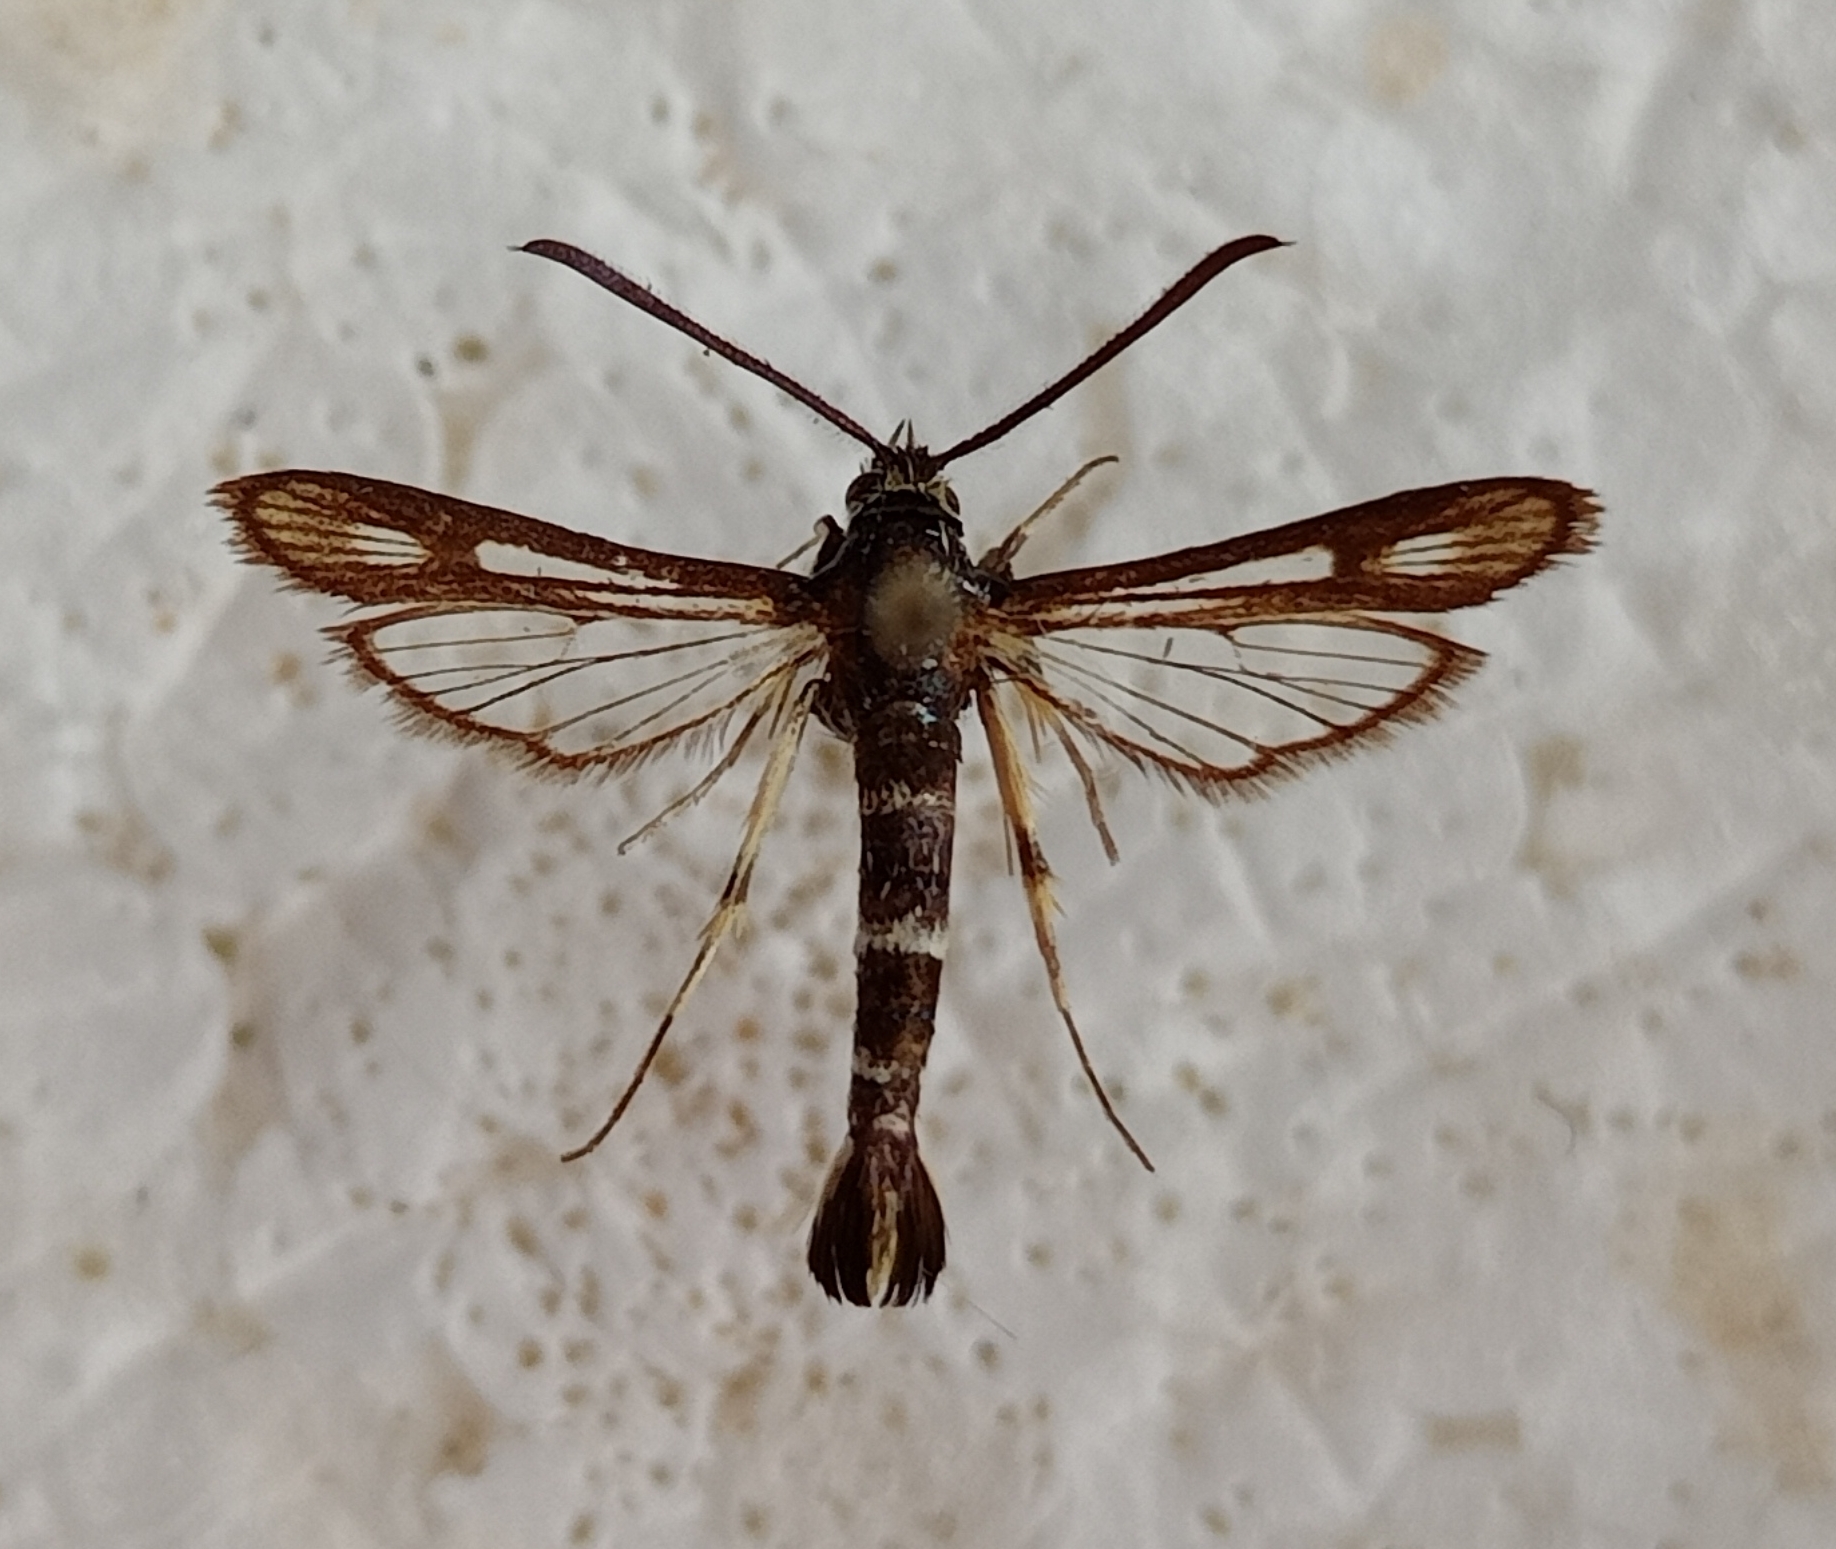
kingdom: Animalia
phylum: Arthropoda
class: Insecta
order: Lepidoptera
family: Sesiidae
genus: Chamaesphecia
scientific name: Chamaesphecia leucoparea
